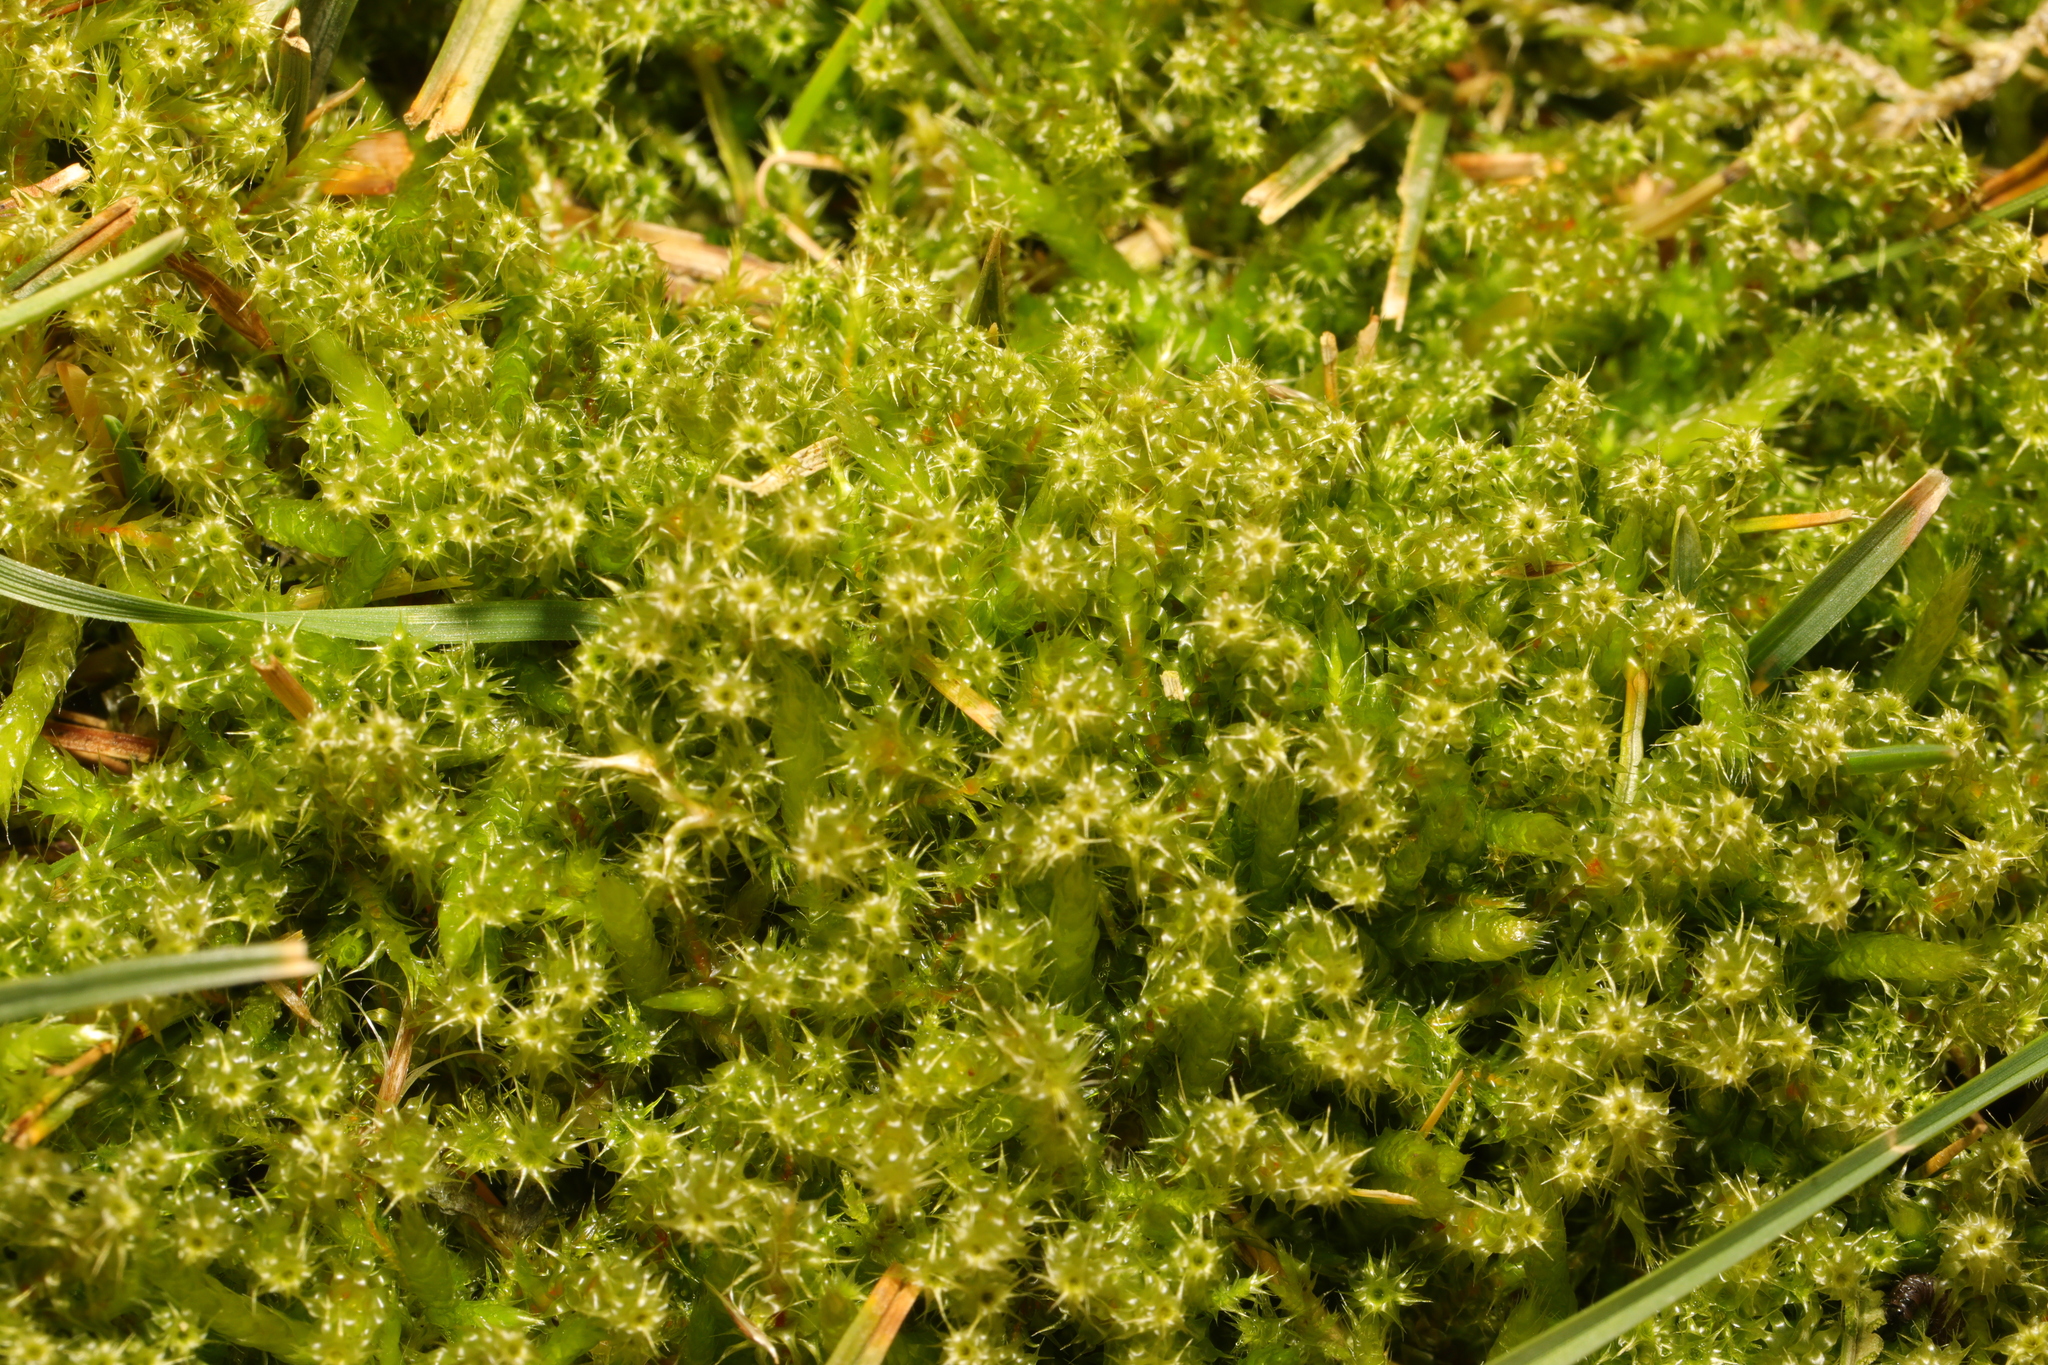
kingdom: Plantae
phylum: Bryophyta
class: Bryopsida
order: Hypnales
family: Hylocomiaceae
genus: Rhytidiadelphus
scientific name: Rhytidiadelphus squarrosus
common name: Springy turf-moss
